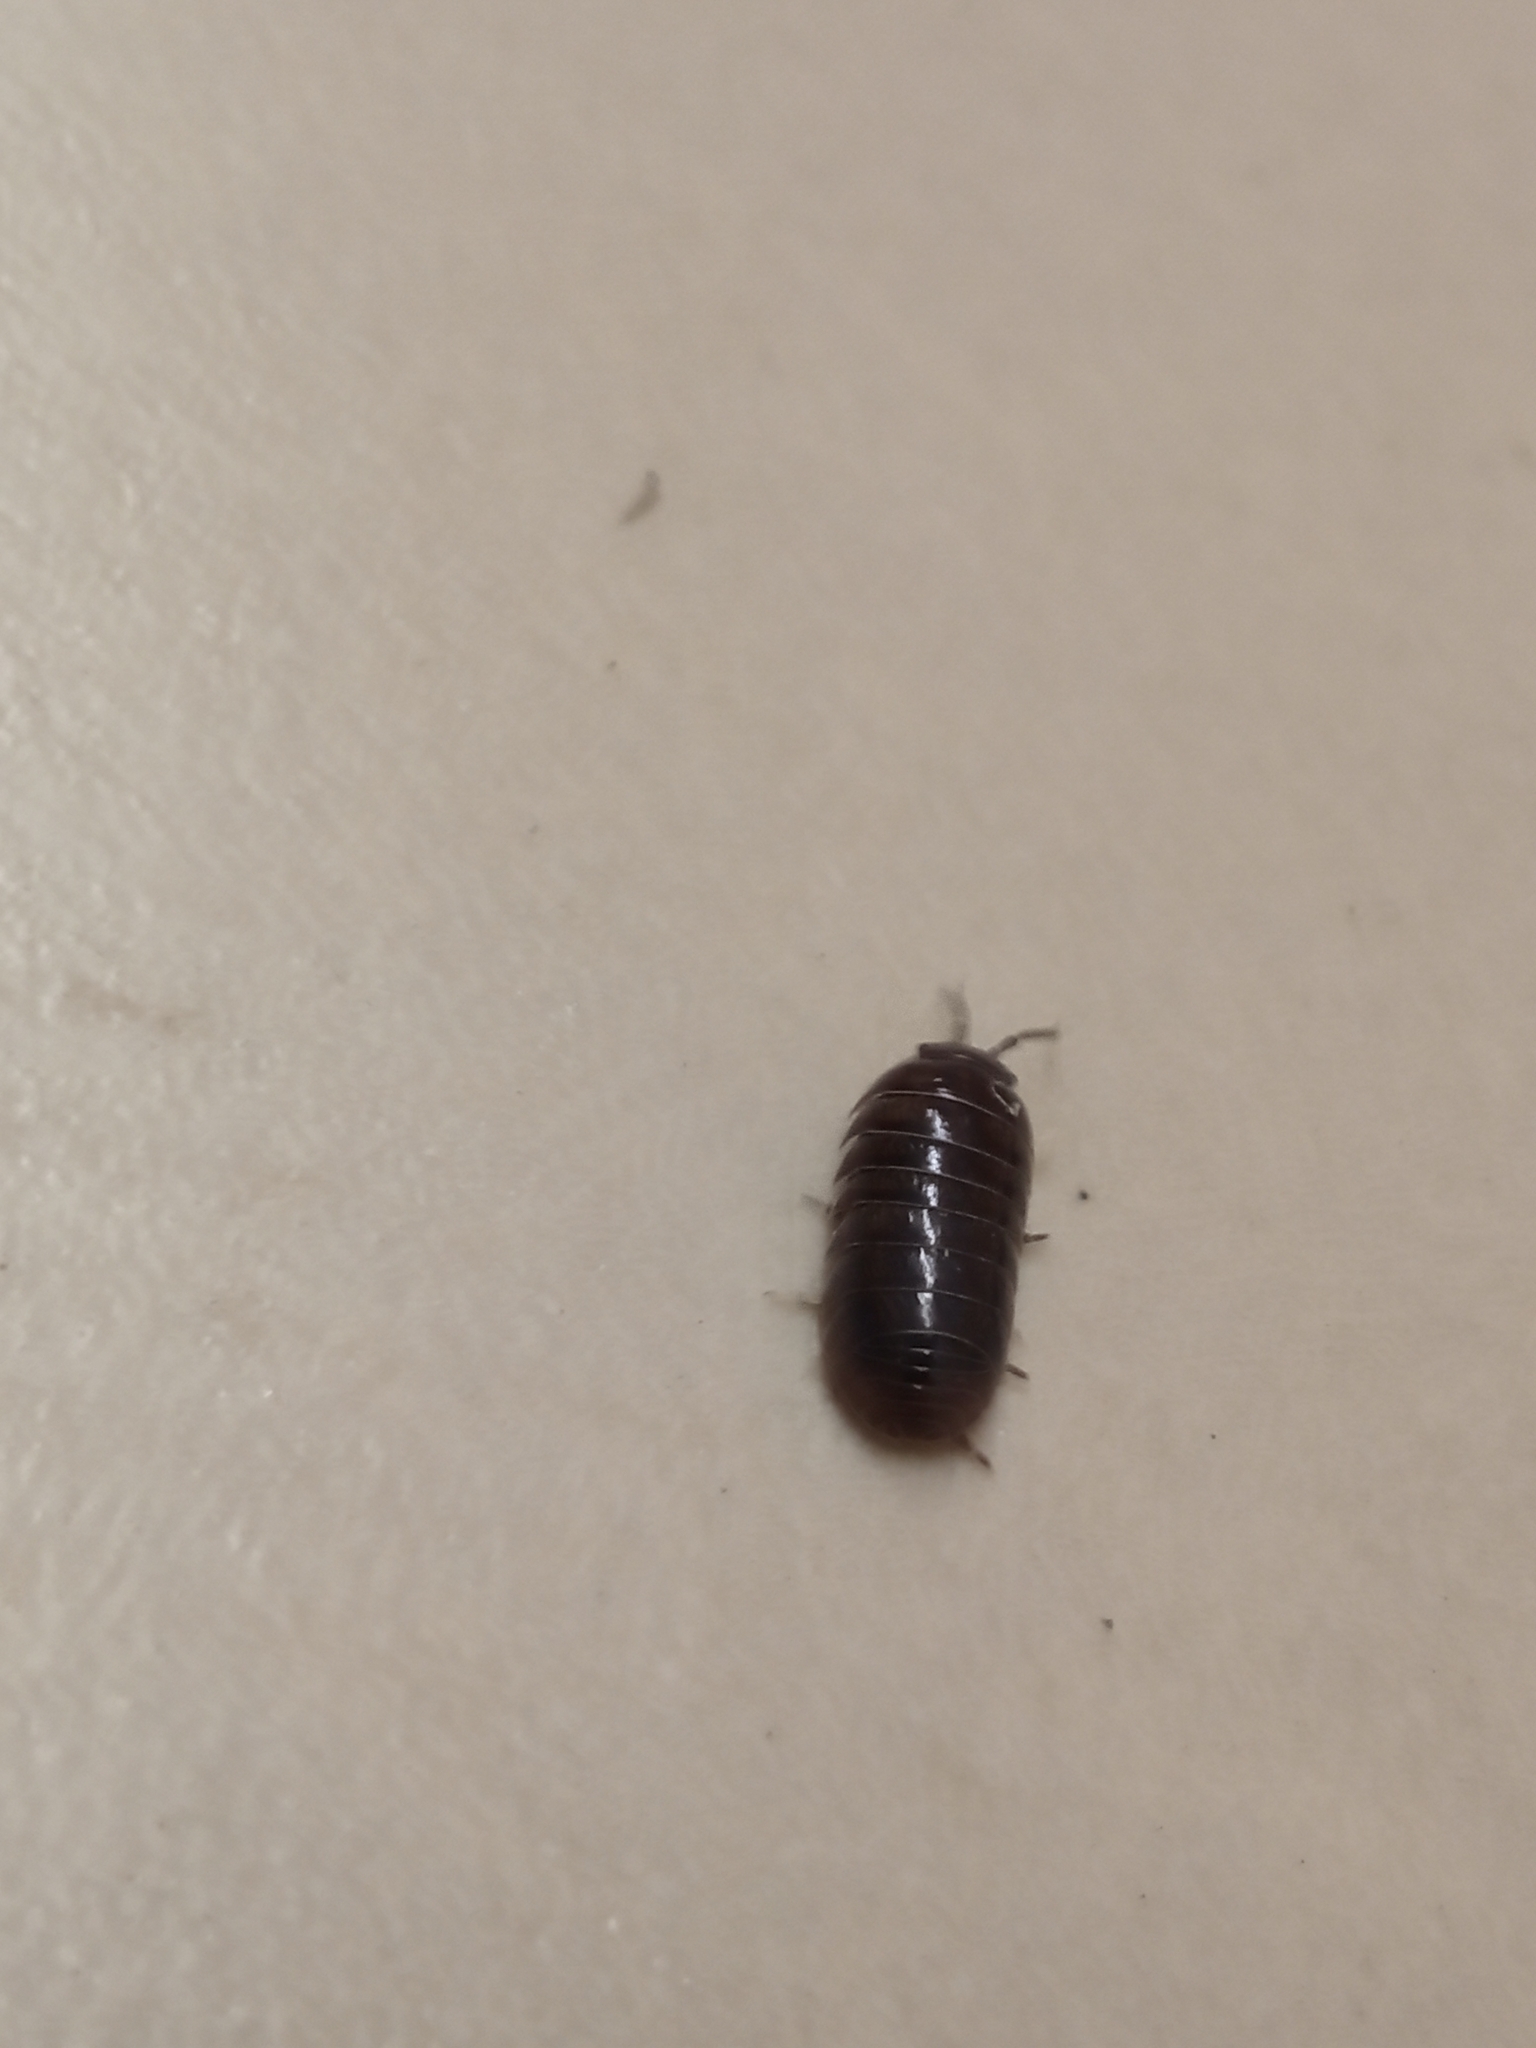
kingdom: Animalia
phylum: Arthropoda
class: Malacostraca
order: Isopoda
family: Armadillidiidae
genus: Armadillidium
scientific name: Armadillidium vulgare
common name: Common pill woodlouse
